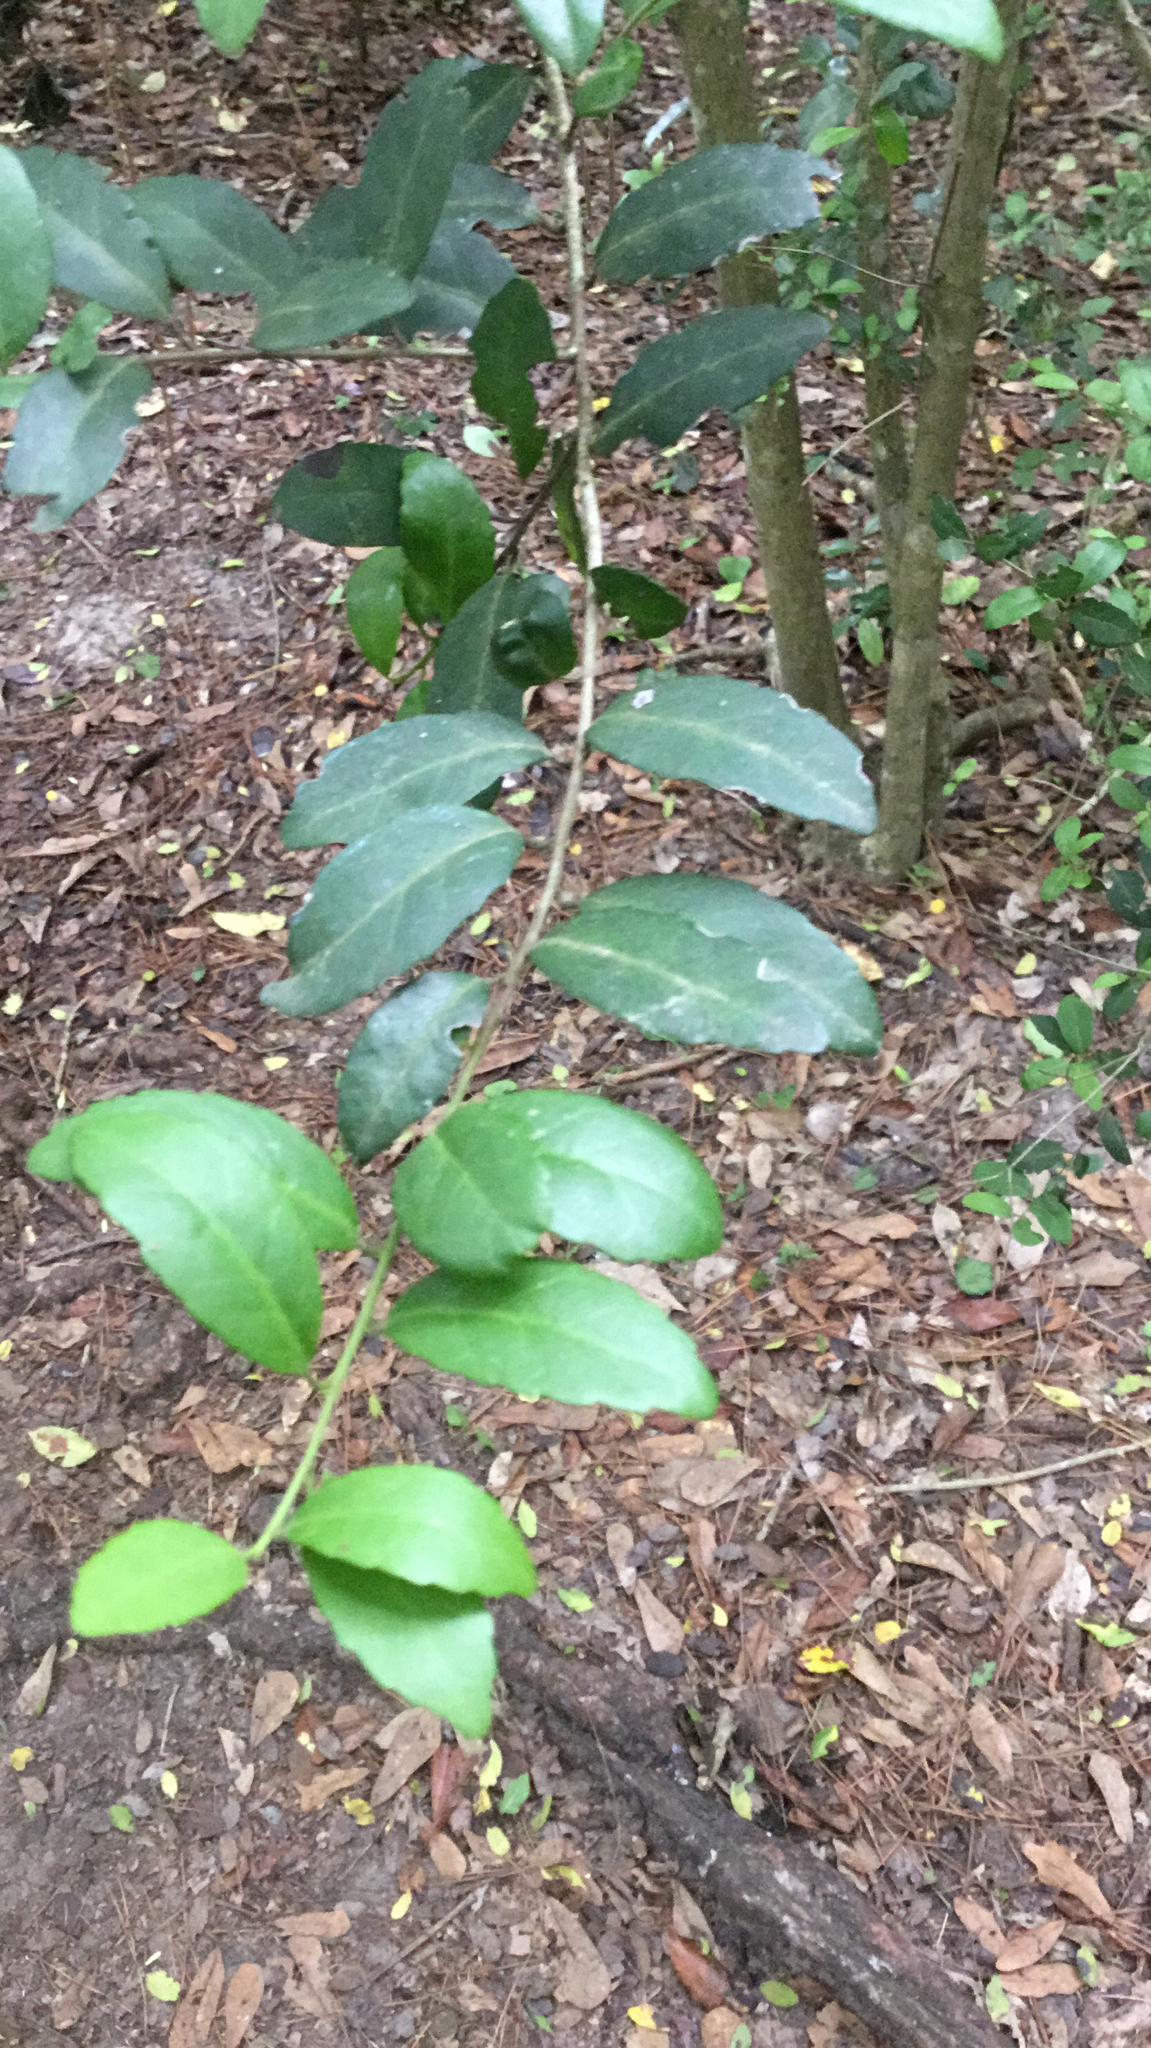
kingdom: Plantae
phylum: Tracheophyta
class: Magnoliopsida
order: Aquifoliales
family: Aquifoliaceae
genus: Ilex
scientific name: Ilex vomitoria
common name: Yaupon holly
